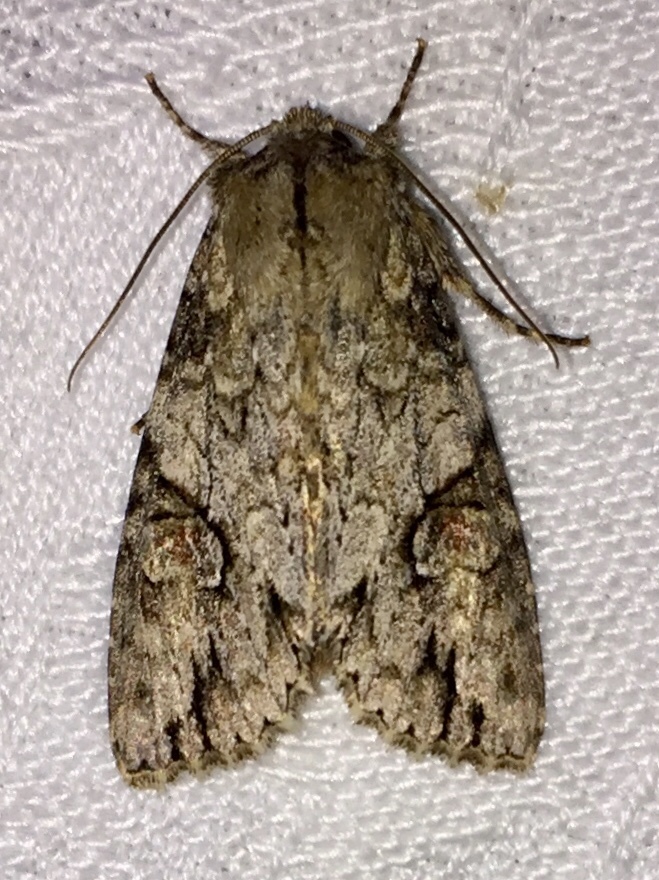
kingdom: Animalia
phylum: Arthropoda
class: Insecta
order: Lepidoptera
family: Noctuidae
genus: Achatia
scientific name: Achatia latex
